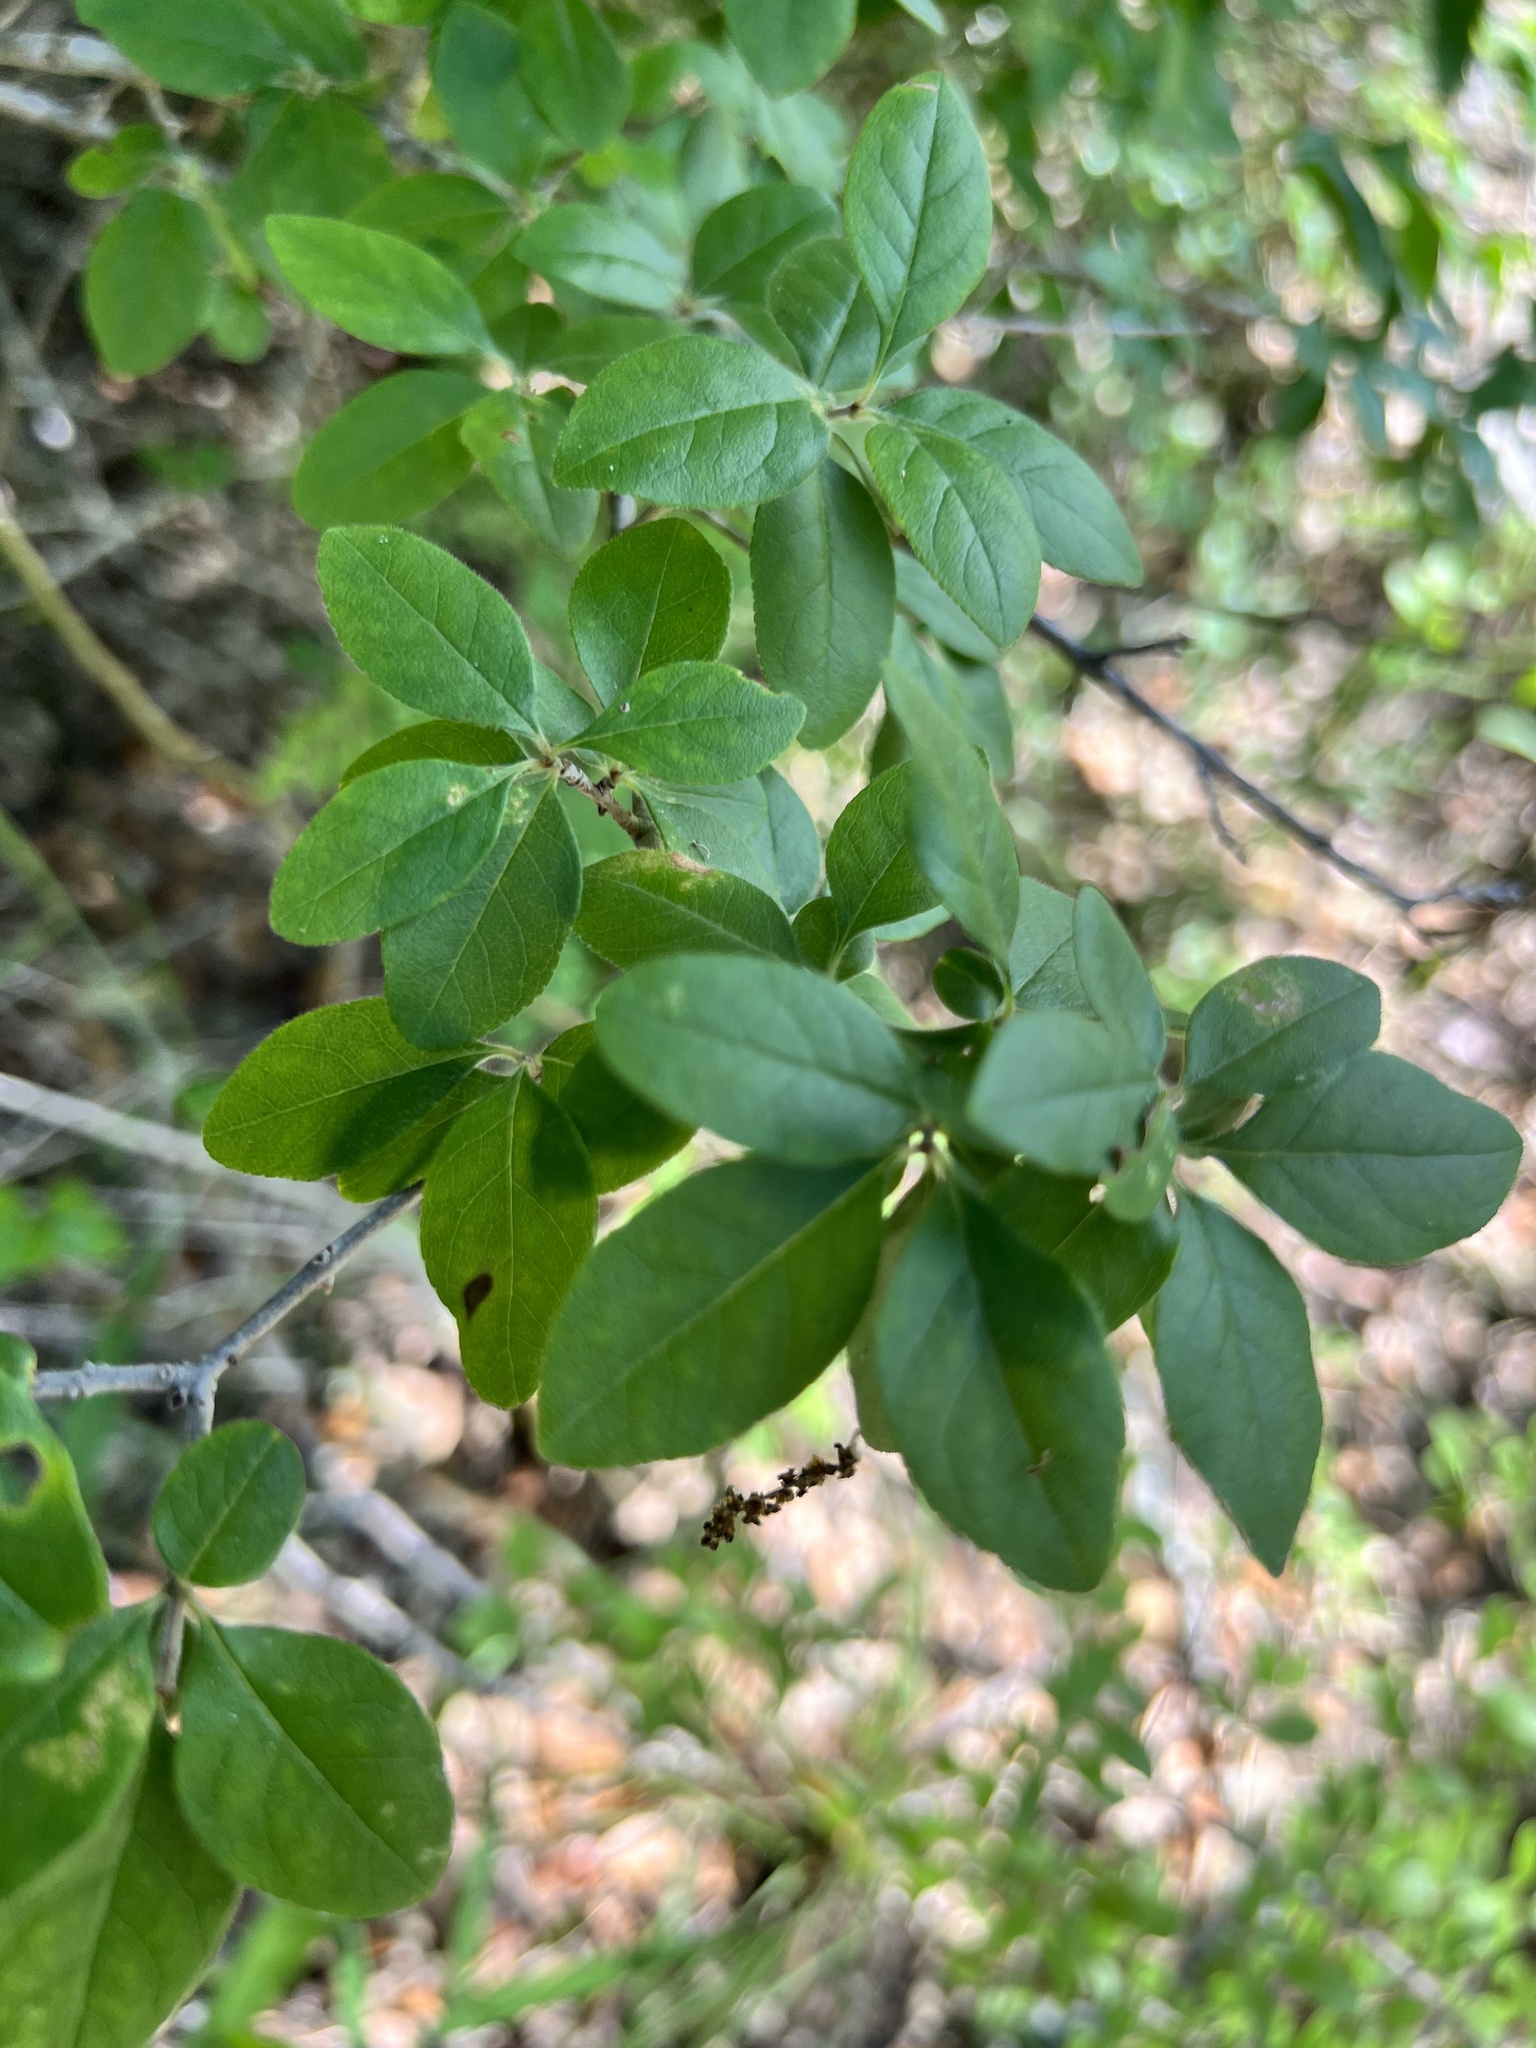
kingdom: Plantae
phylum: Tracheophyta
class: Magnoliopsida
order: Lamiales
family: Oleaceae
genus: Forestiera
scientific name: Forestiera pubescens
